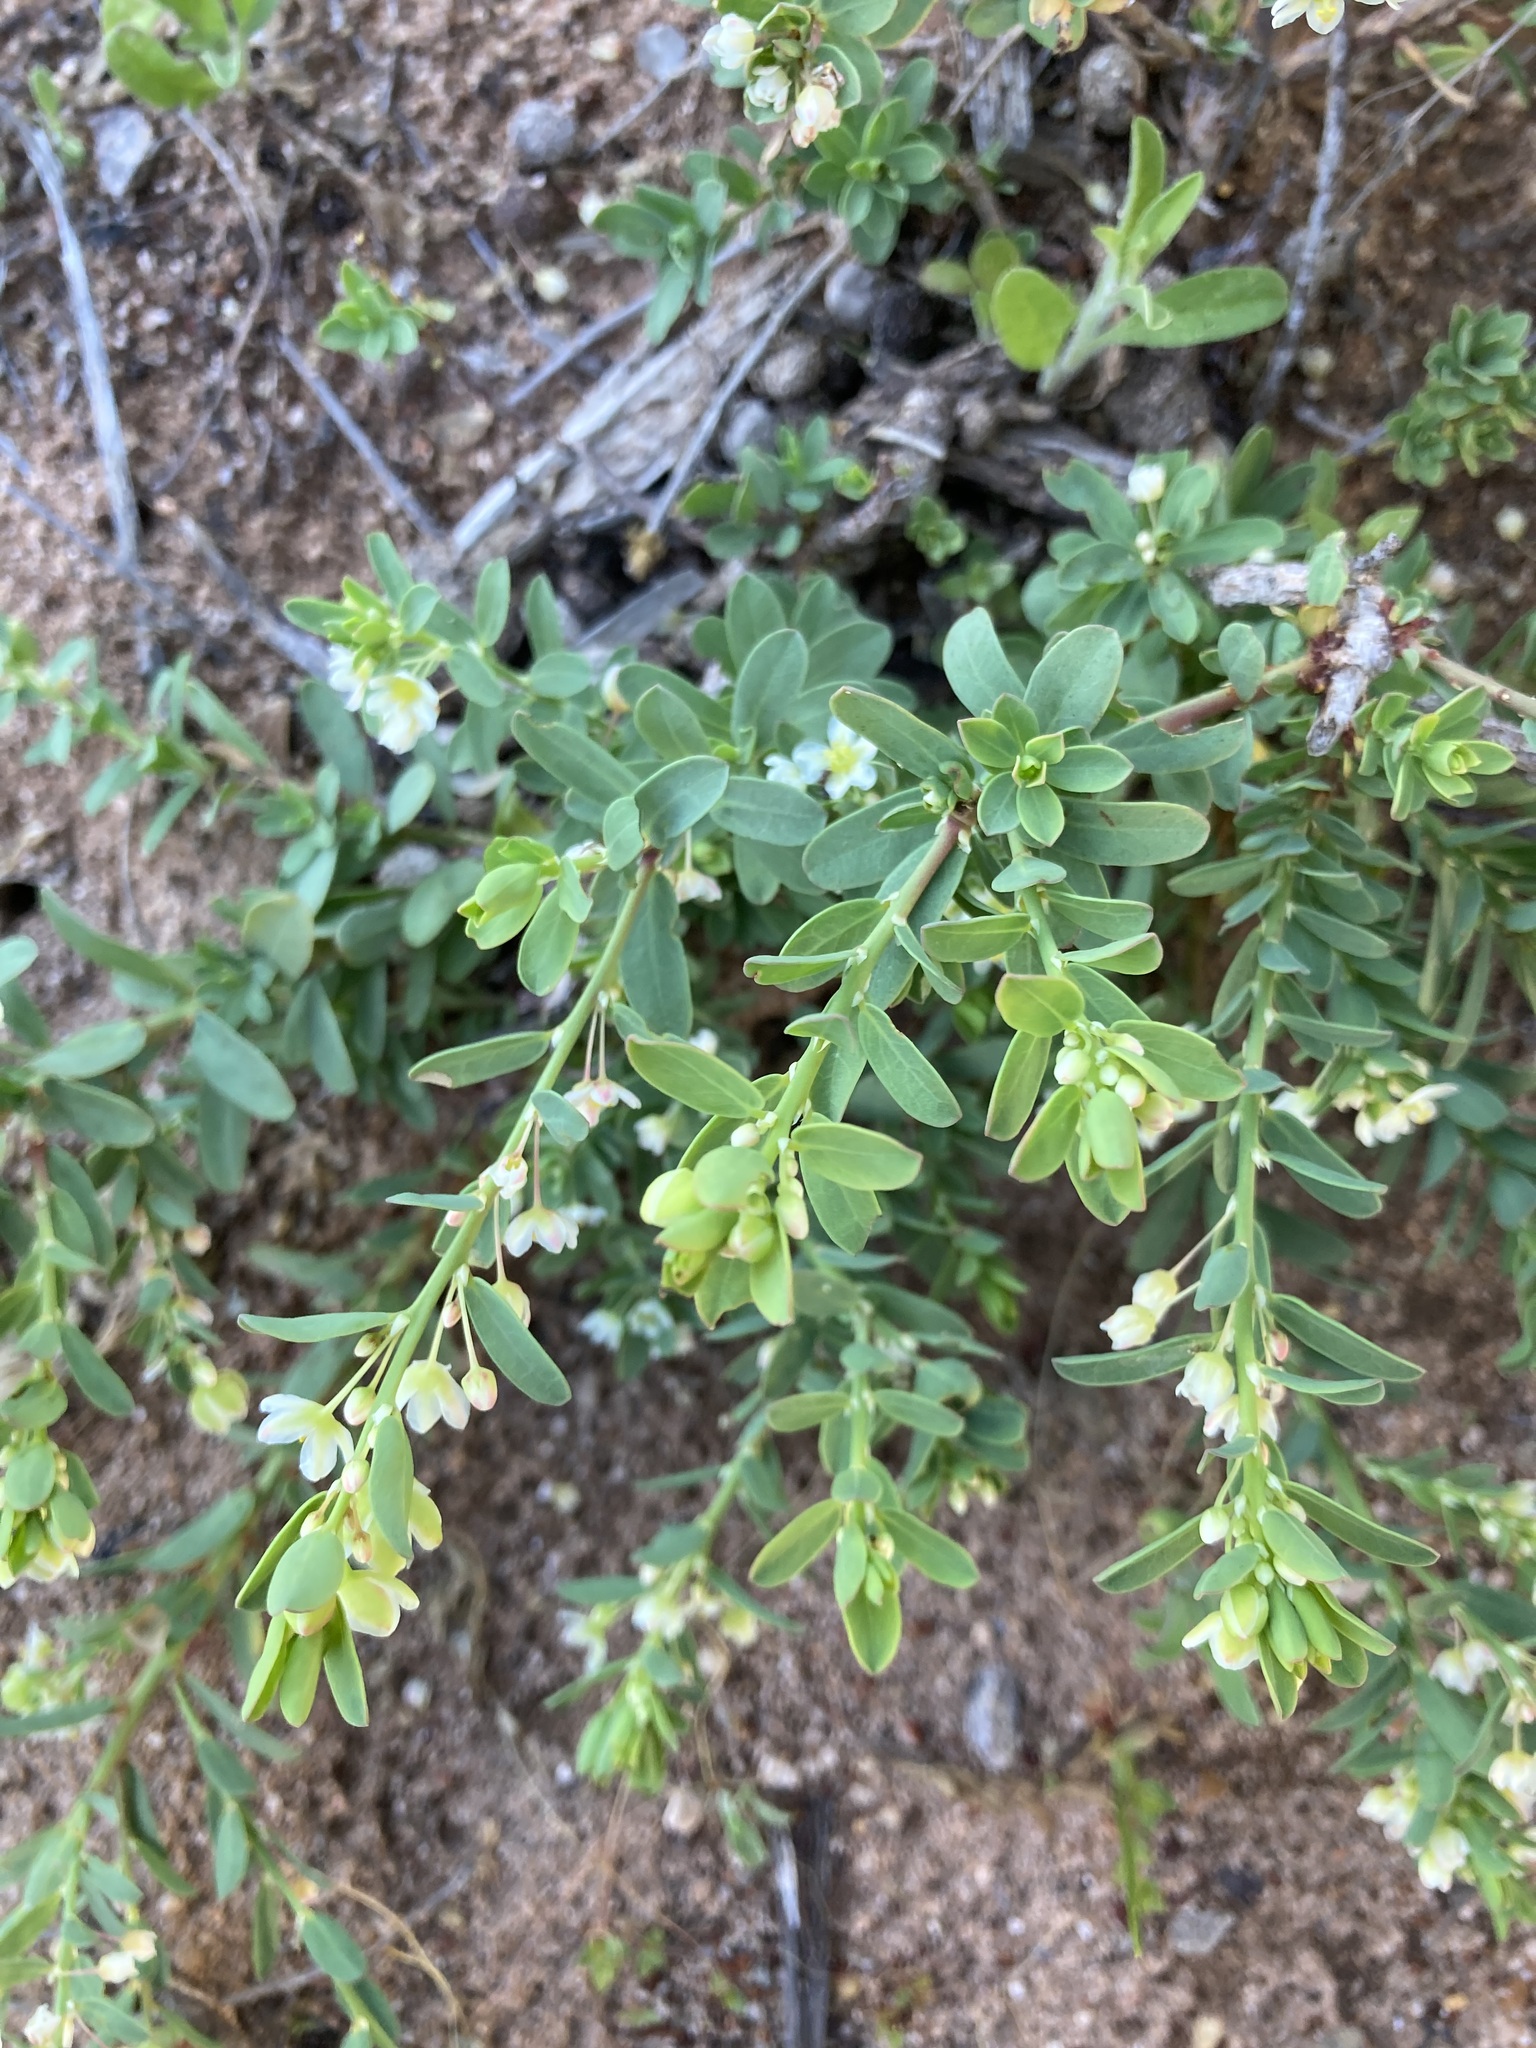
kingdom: Plantae
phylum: Tracheophyta
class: Magnoliopsida
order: Malpighiales
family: Phyllanthaceae
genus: Phyllanthus
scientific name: Phyllanthus calycinus
